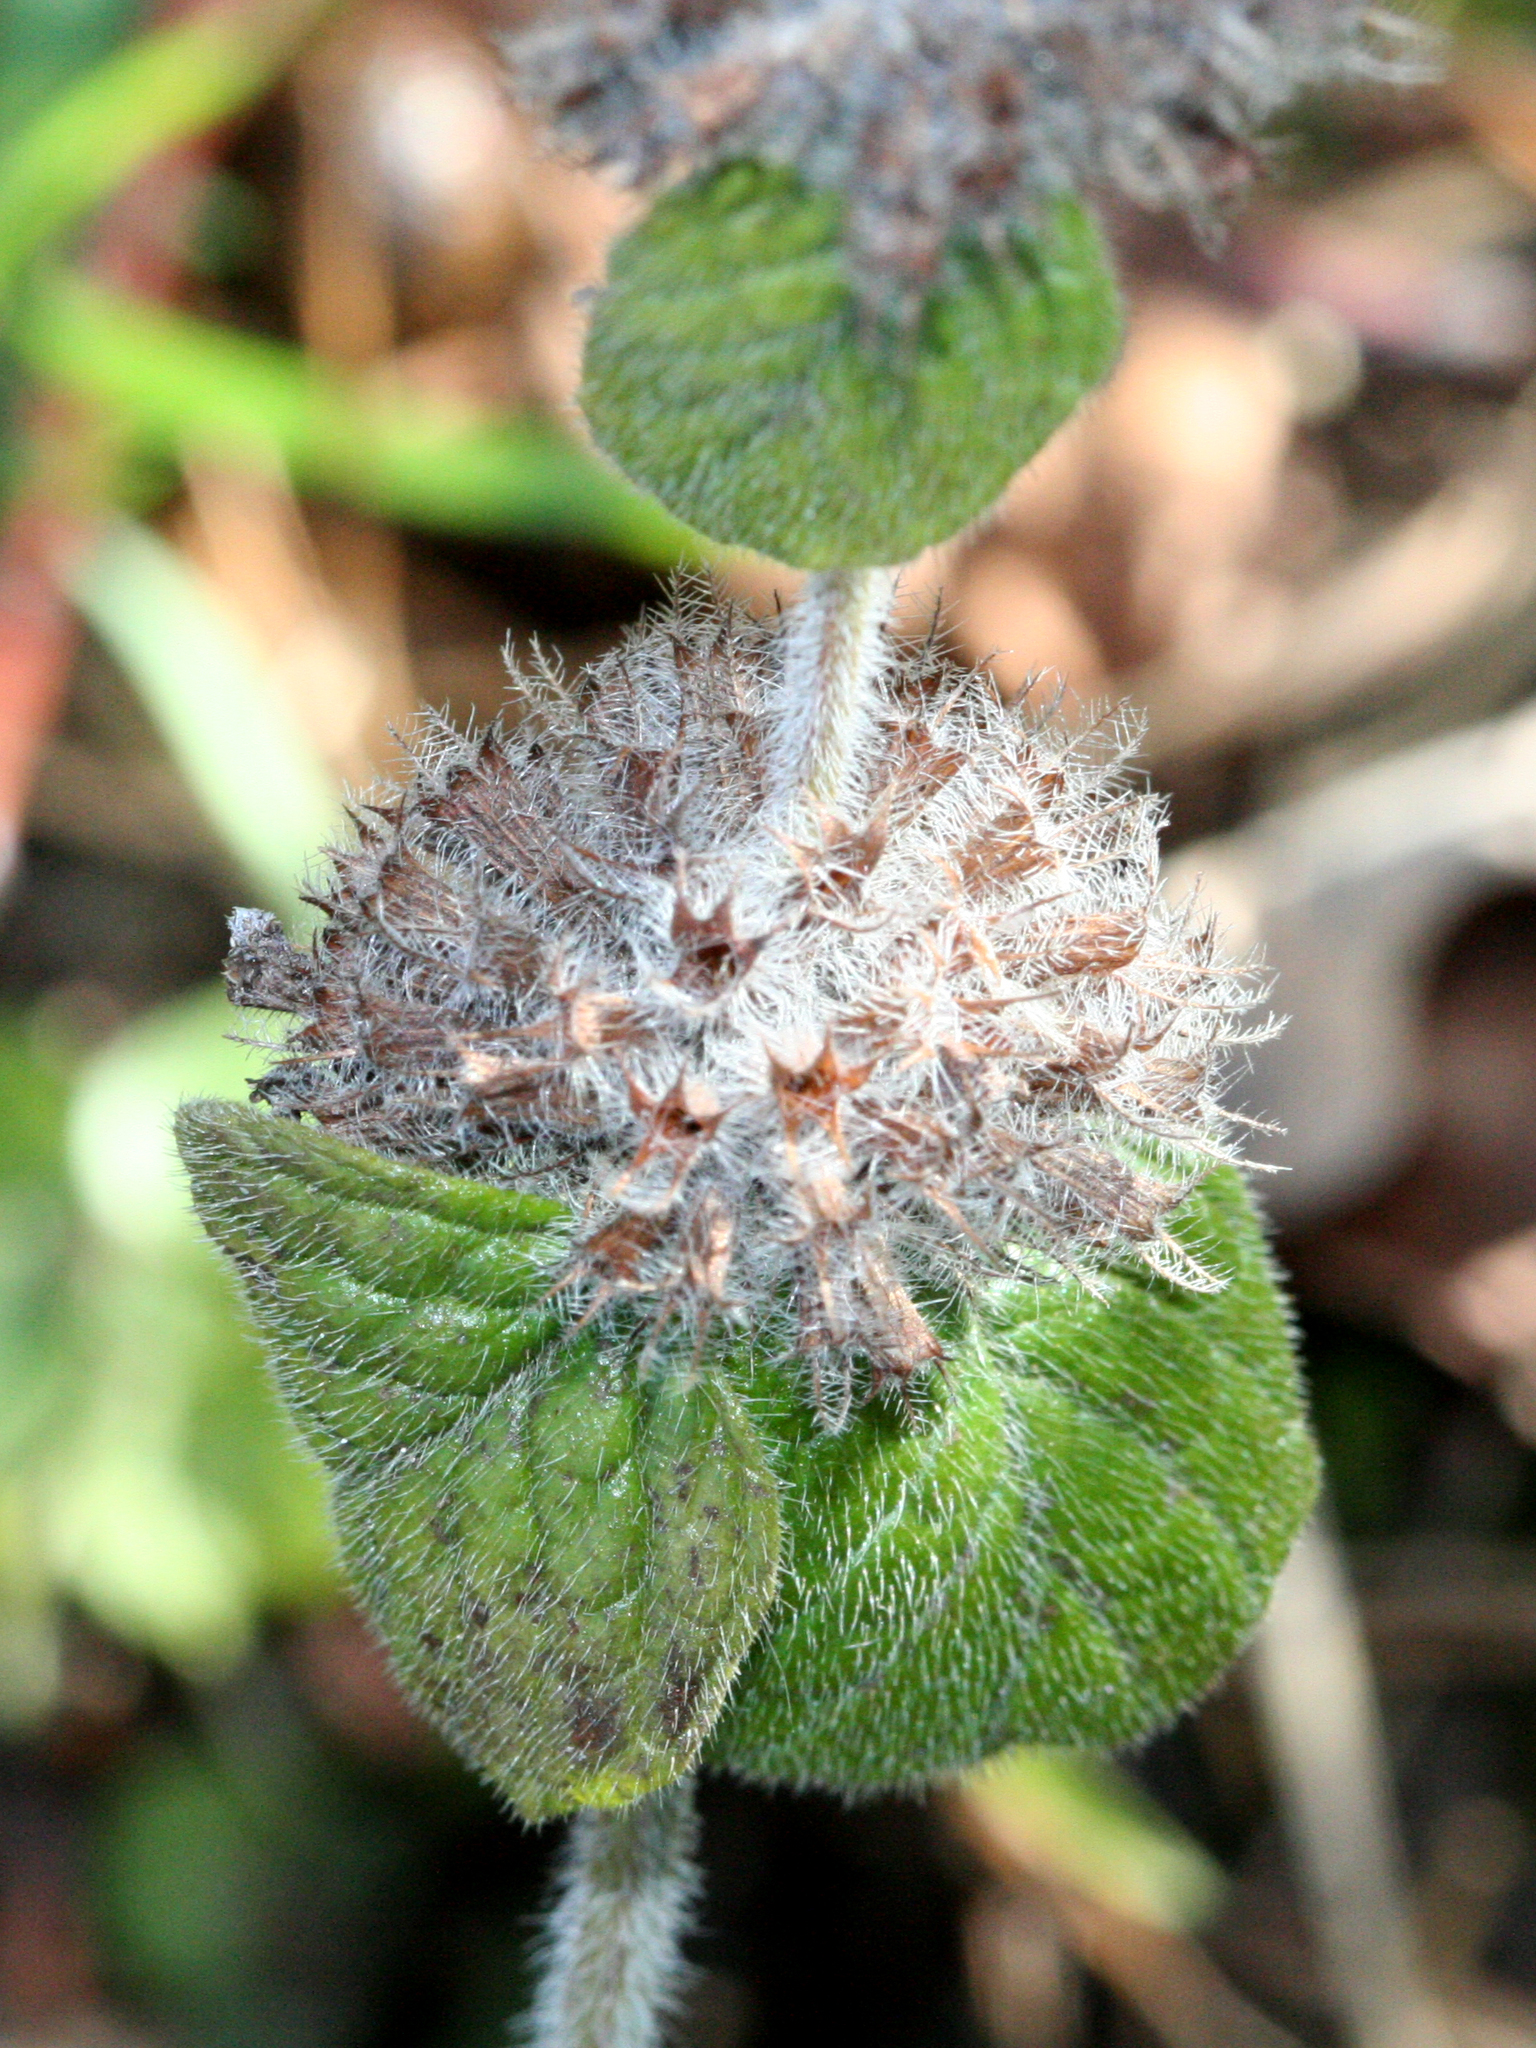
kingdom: Plantae
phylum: Tracheophyta
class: Magnoliopsida
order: Lamiales
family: Lamiaceae
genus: Clinopodium
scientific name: Clinopodium vulgare
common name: Wild basil
